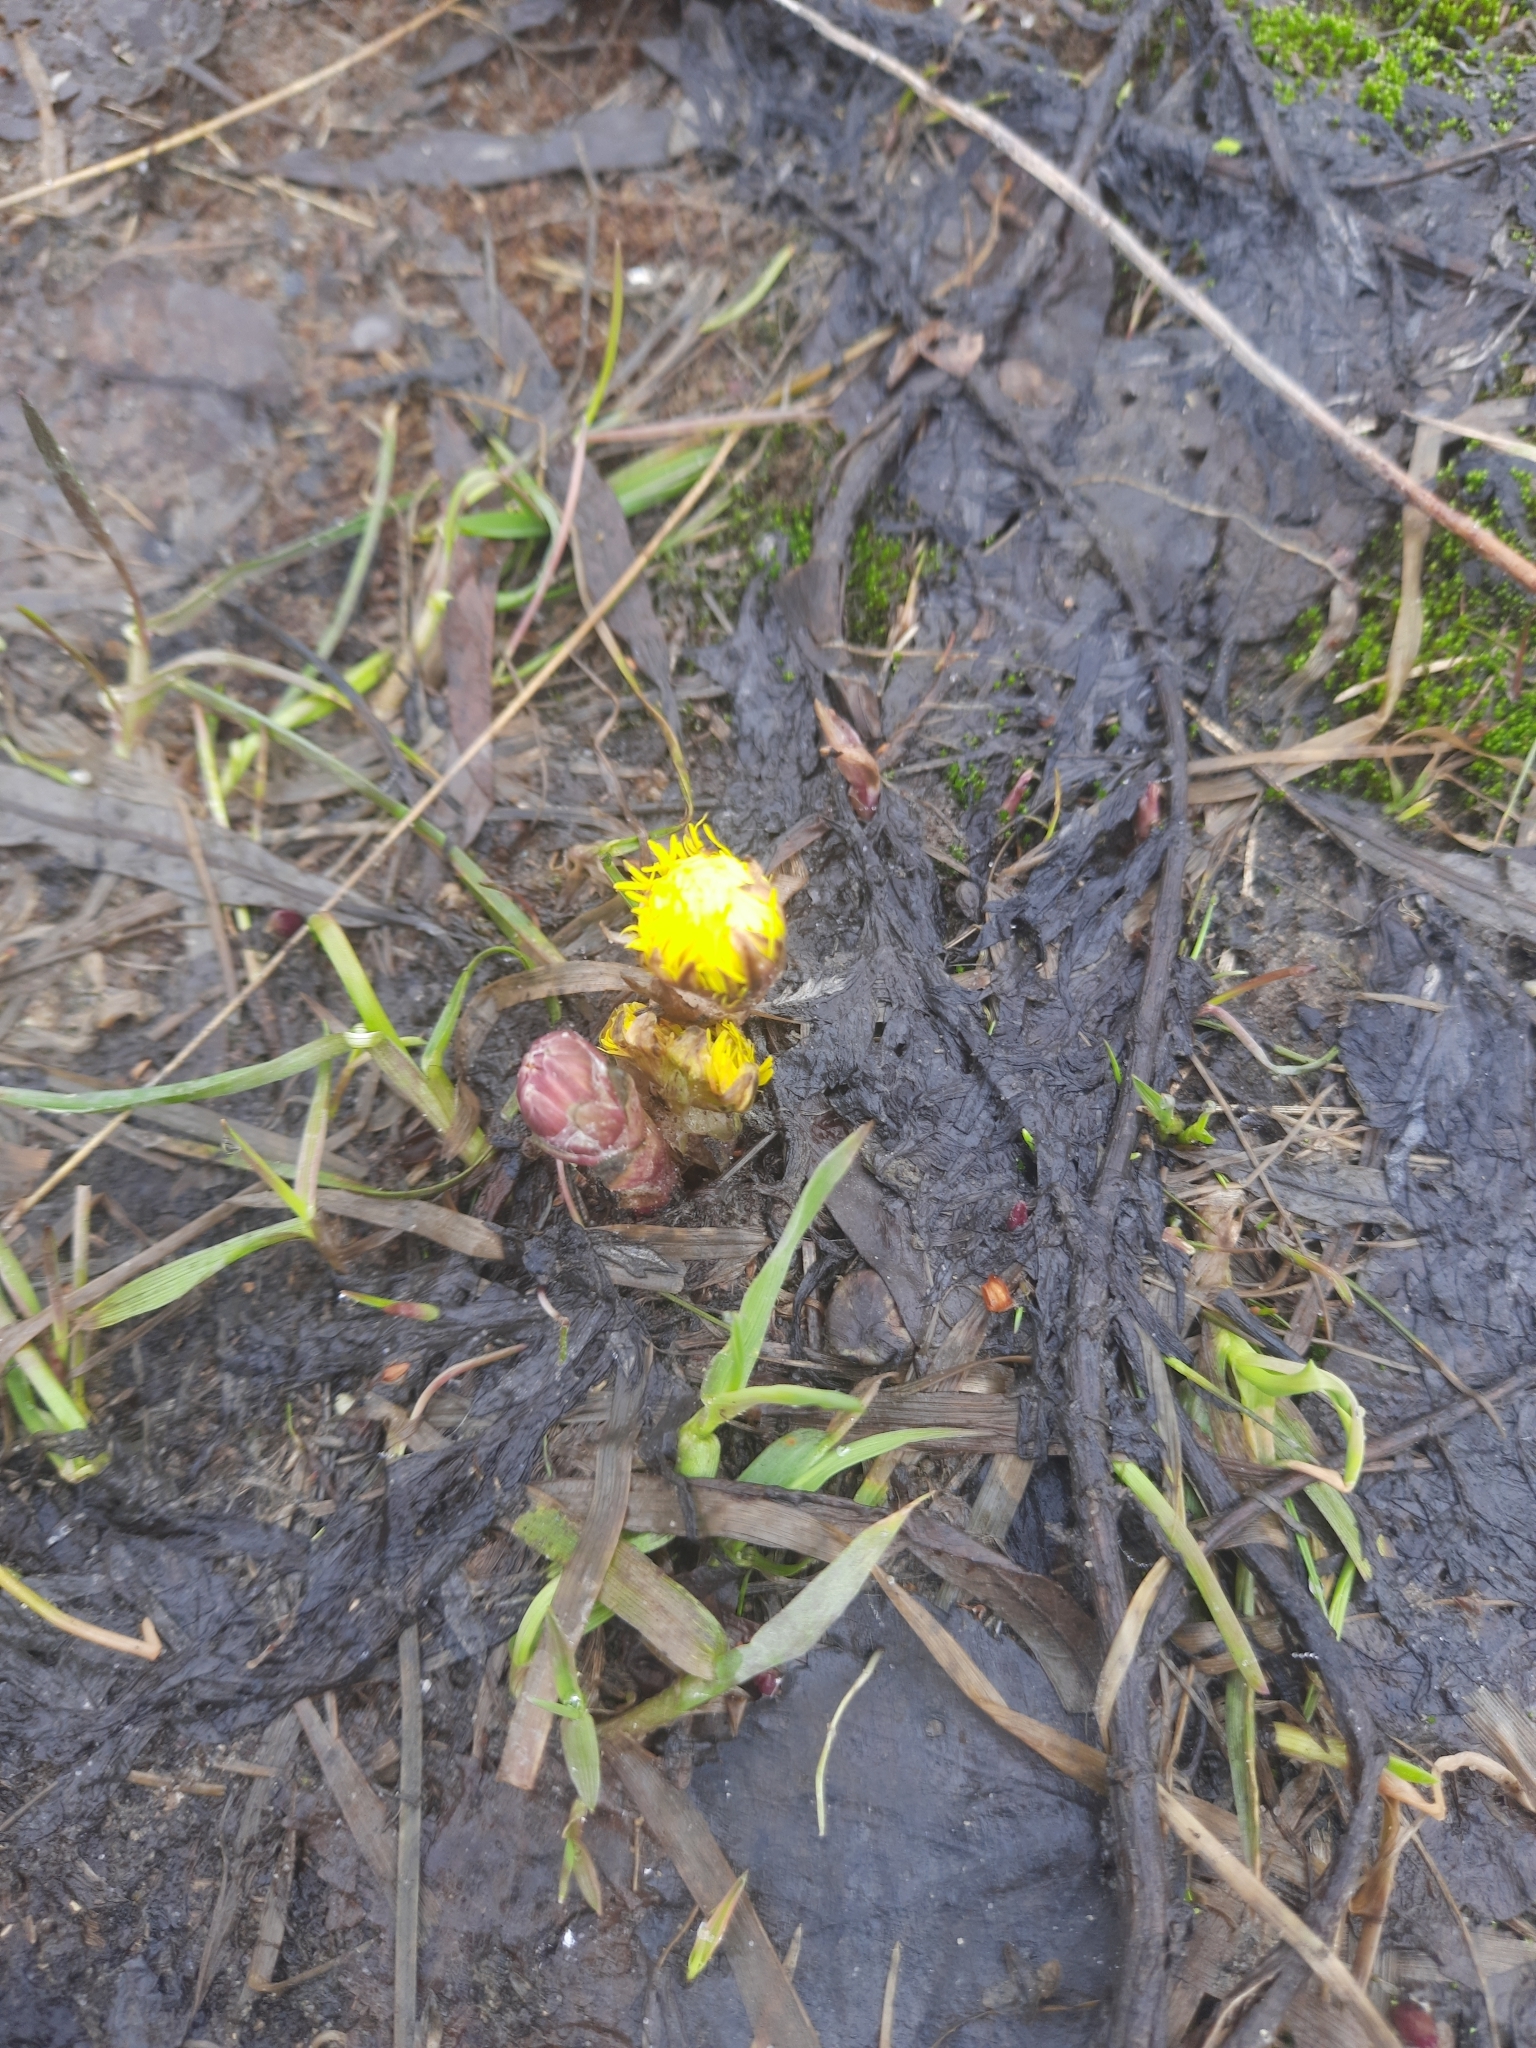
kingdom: Plantae
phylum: Tracheophyta
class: Magnoliopsida
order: Asterales
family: Asteraceae
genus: Tussilago
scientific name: Tussilago farfara
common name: Coltsfoot
